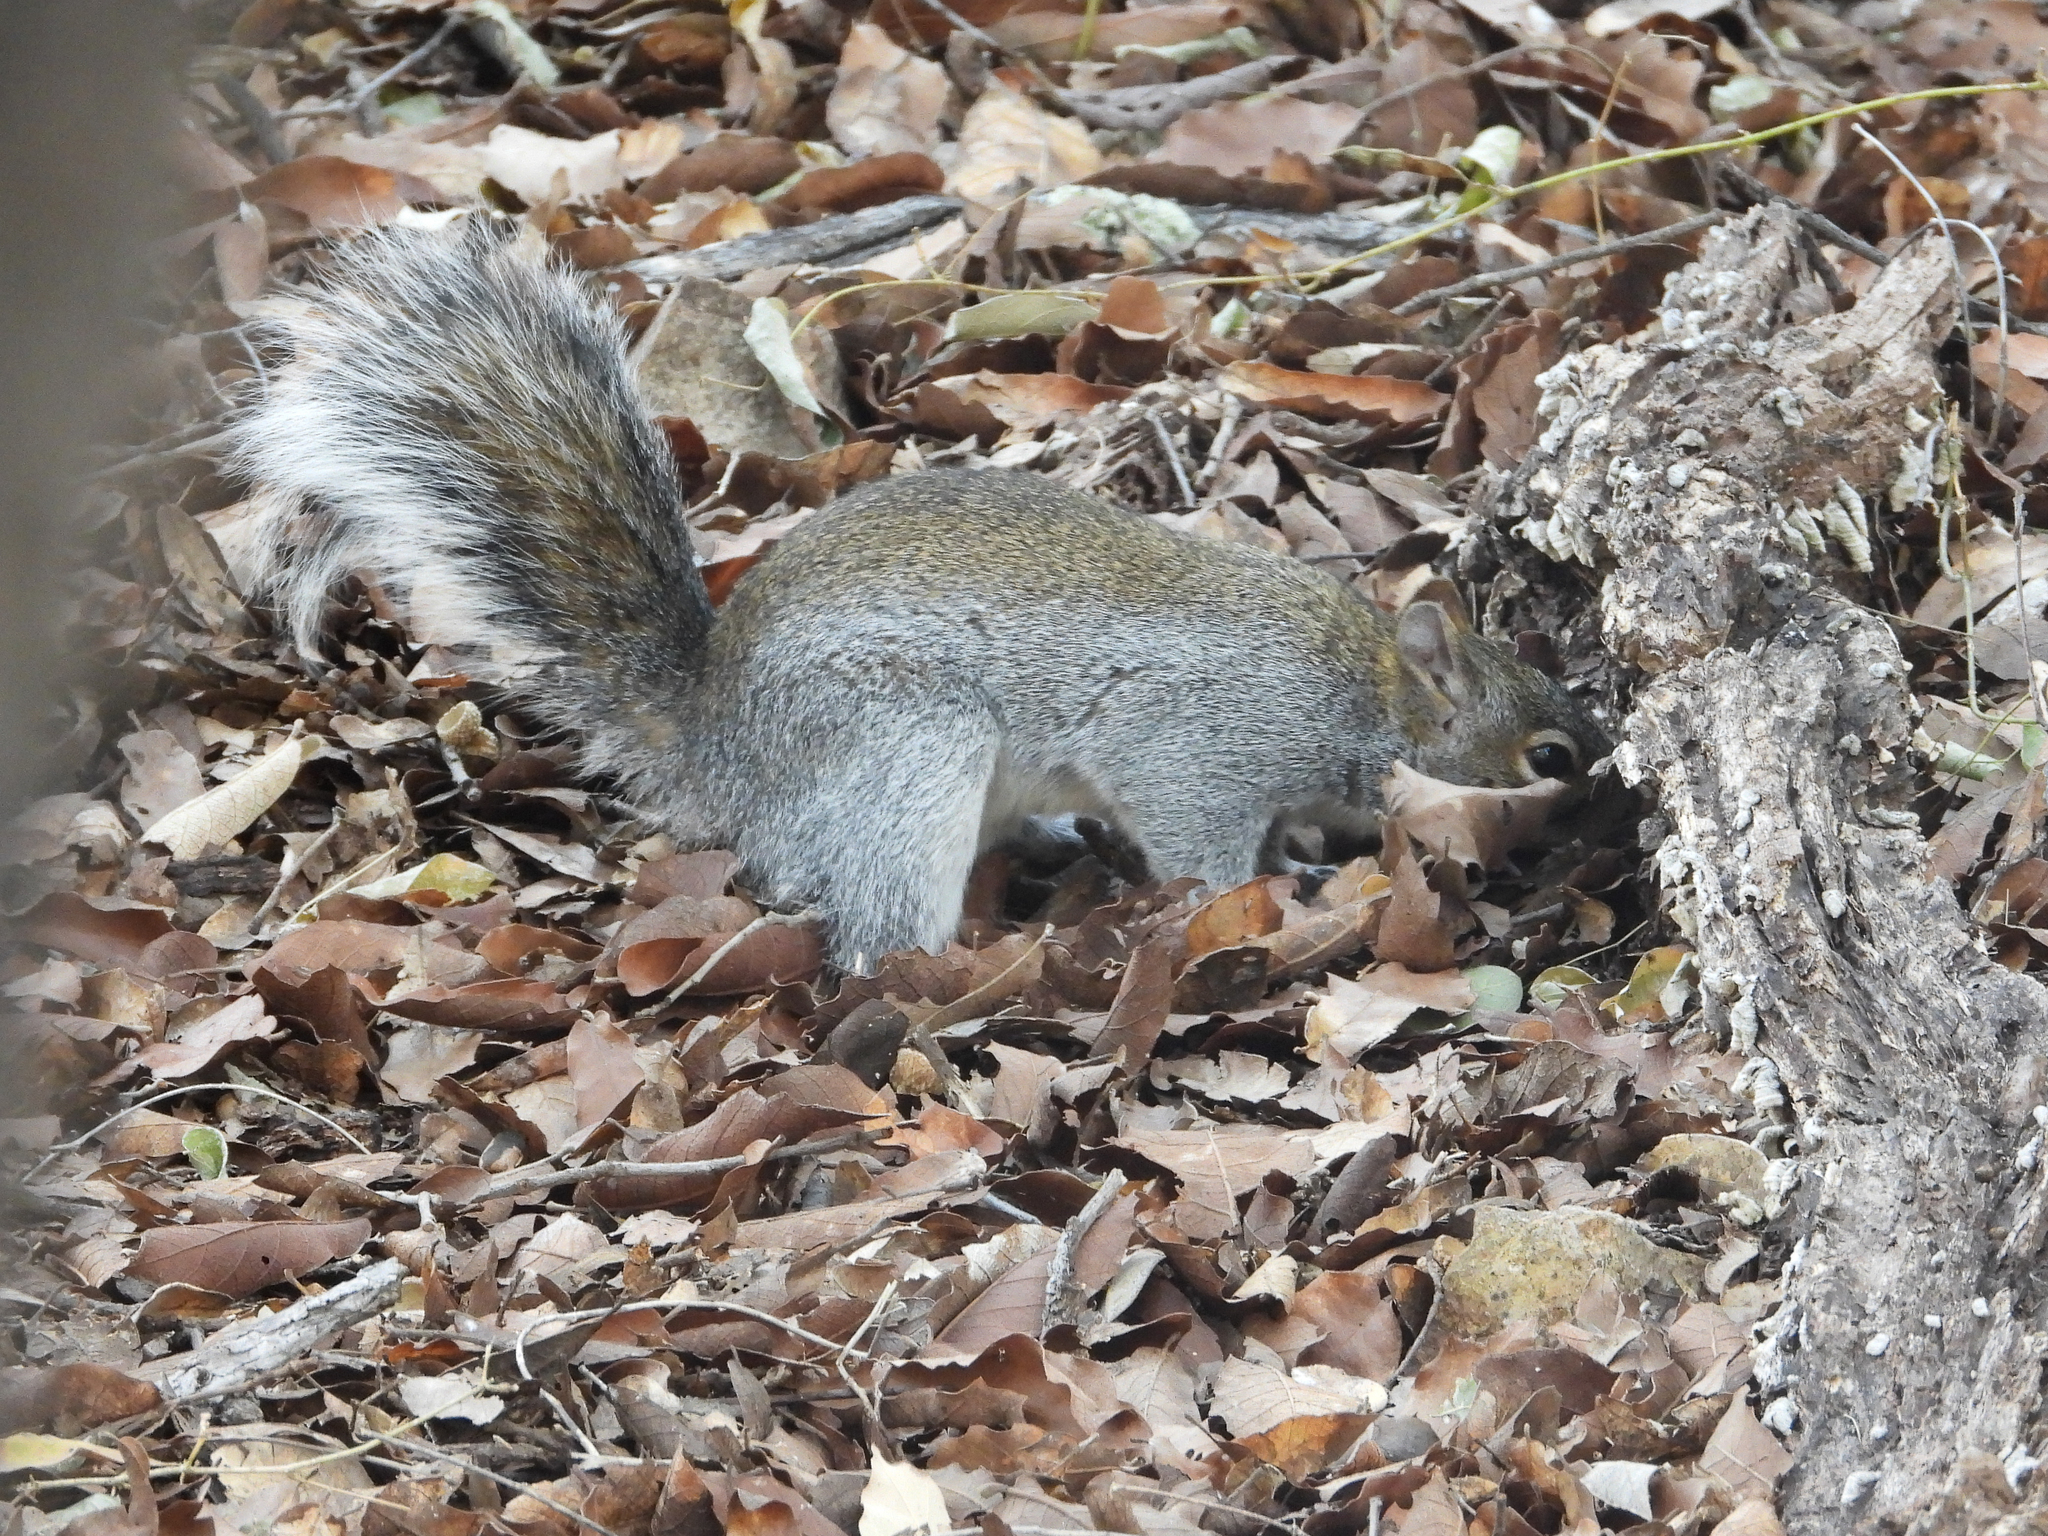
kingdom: Animalia
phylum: Chordata
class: Mammalia
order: Rodentia
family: Sciuridae
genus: Sciurus
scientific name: Sciurus arizonensis
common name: Arizona gray squirrel
